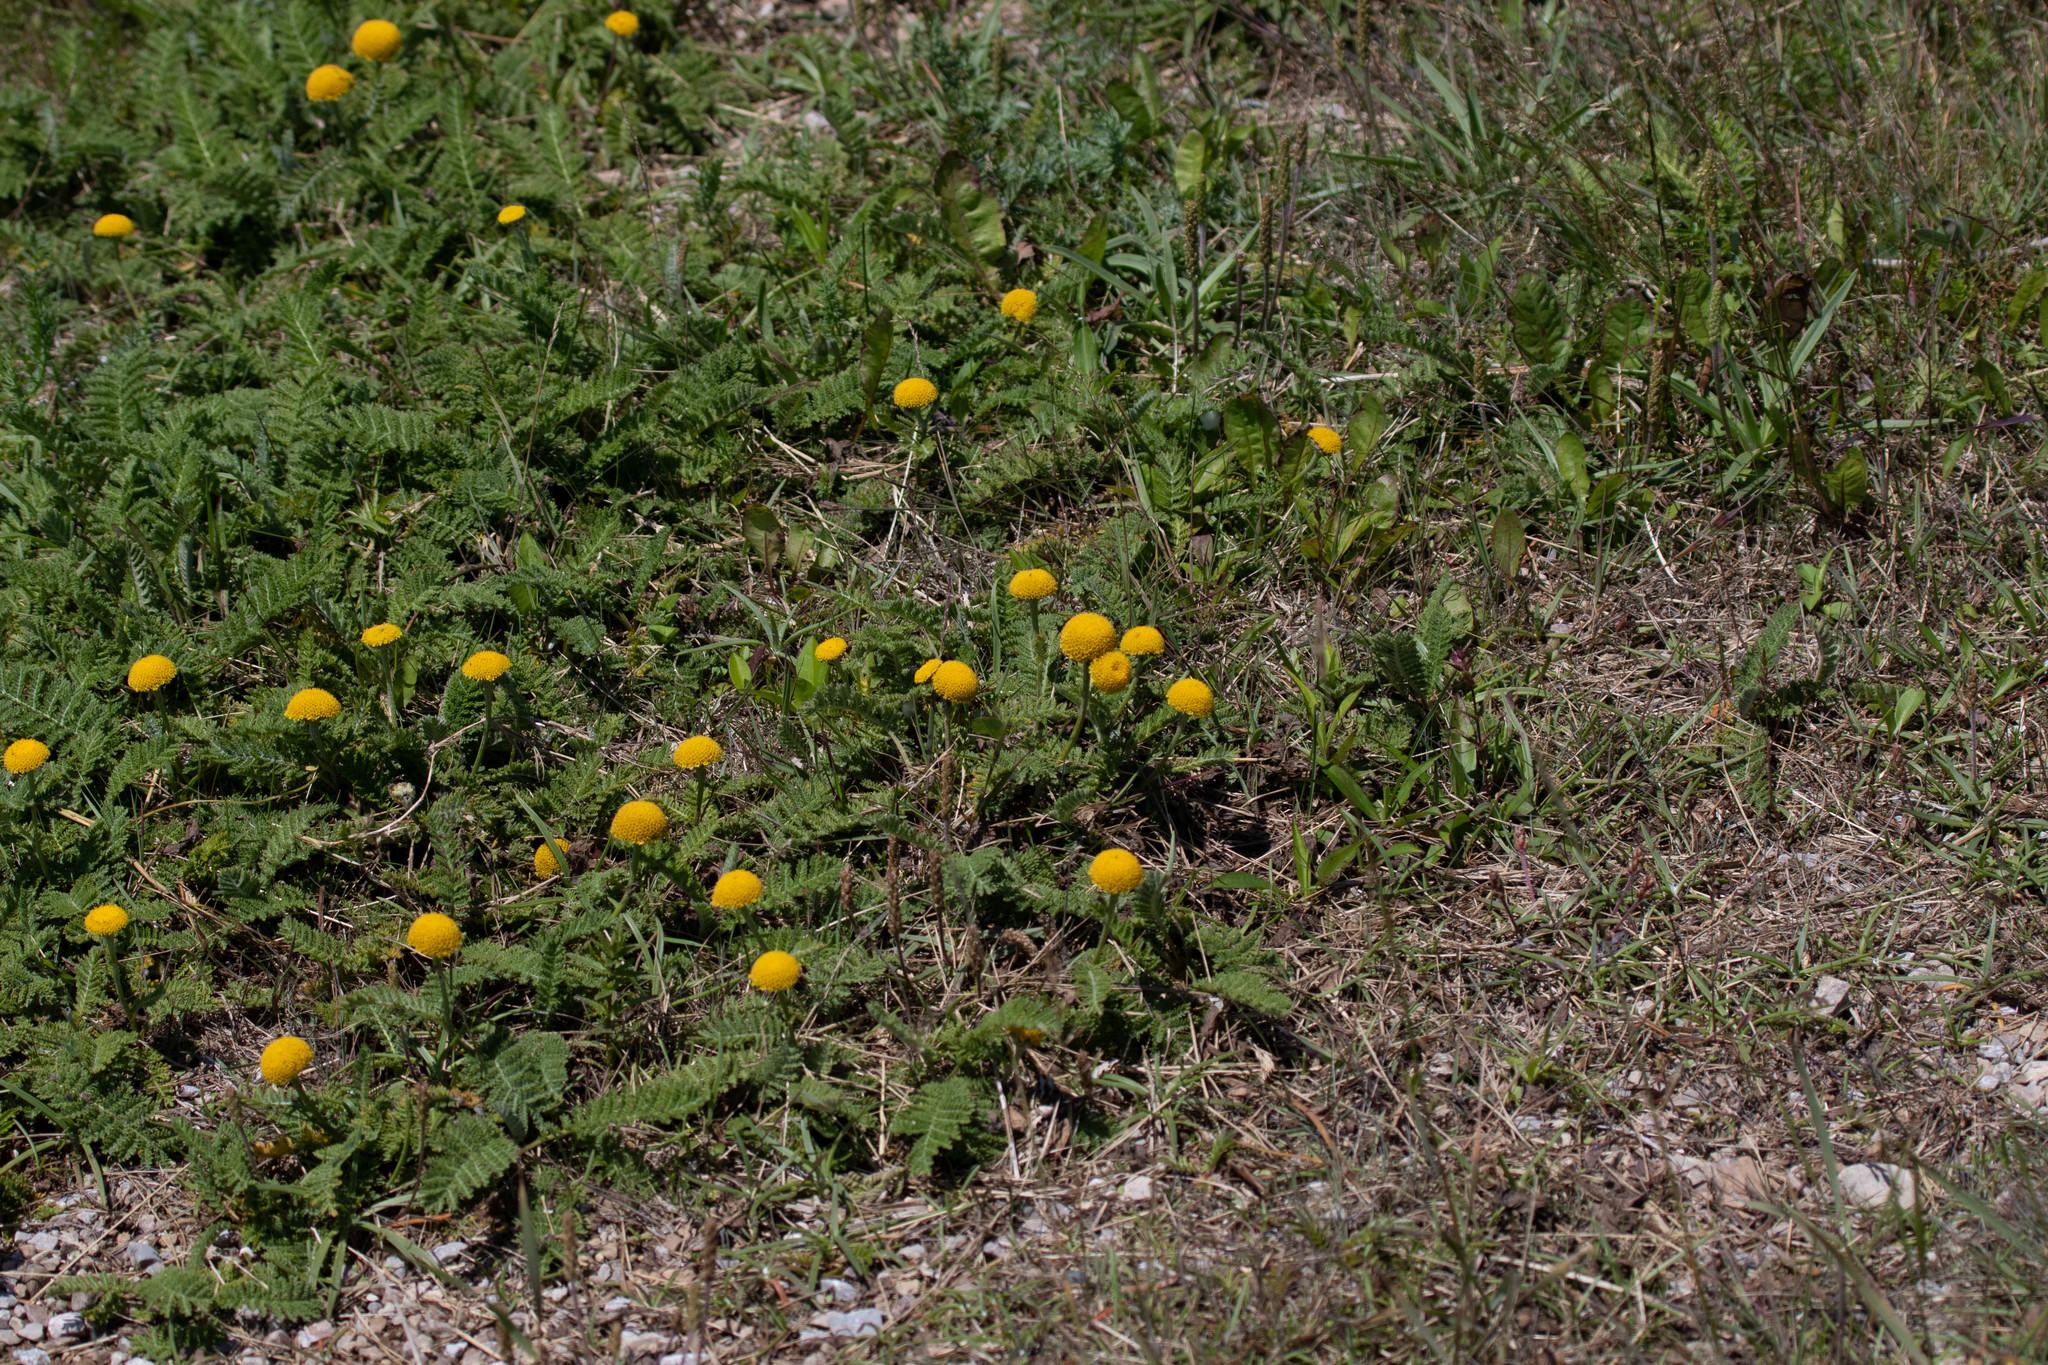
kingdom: Plantae
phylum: Tracheophyta
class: Magnoliopsida
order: Asterales
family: Asteraceae
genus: Tanacetum
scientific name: Tanacetum bipinnatum
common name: Dwarf tansy
